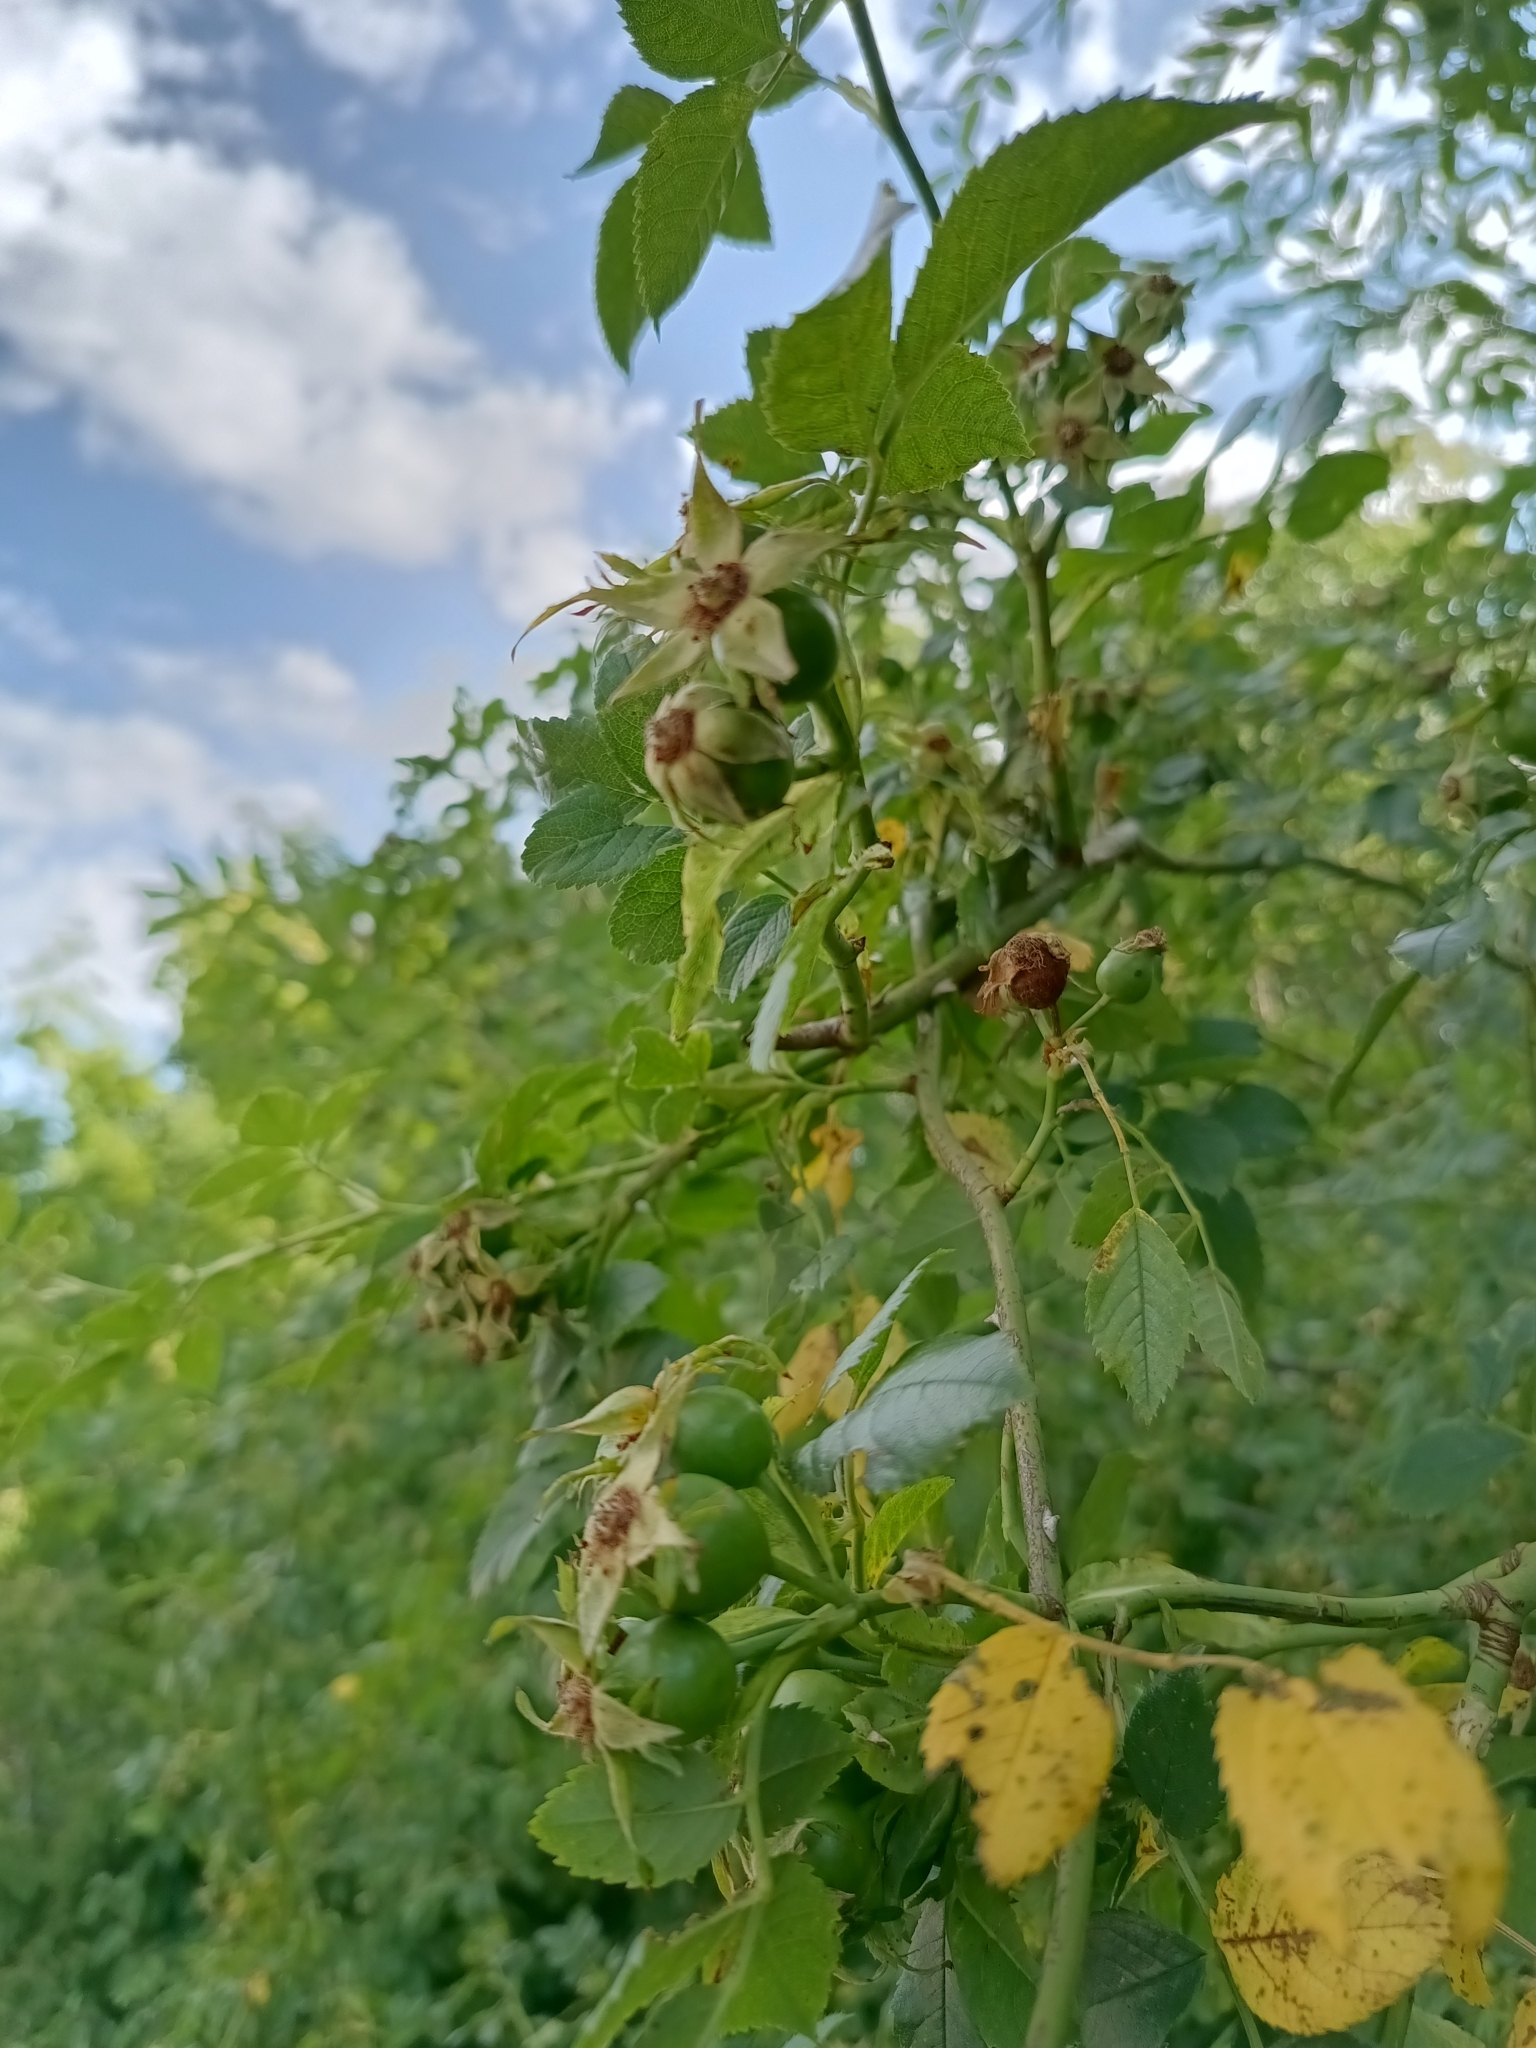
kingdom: Plantae
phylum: Tracheophyta
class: Magnoliopsida
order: Rosales
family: Rosaceae
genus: Rosa
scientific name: Rosa subcanina
